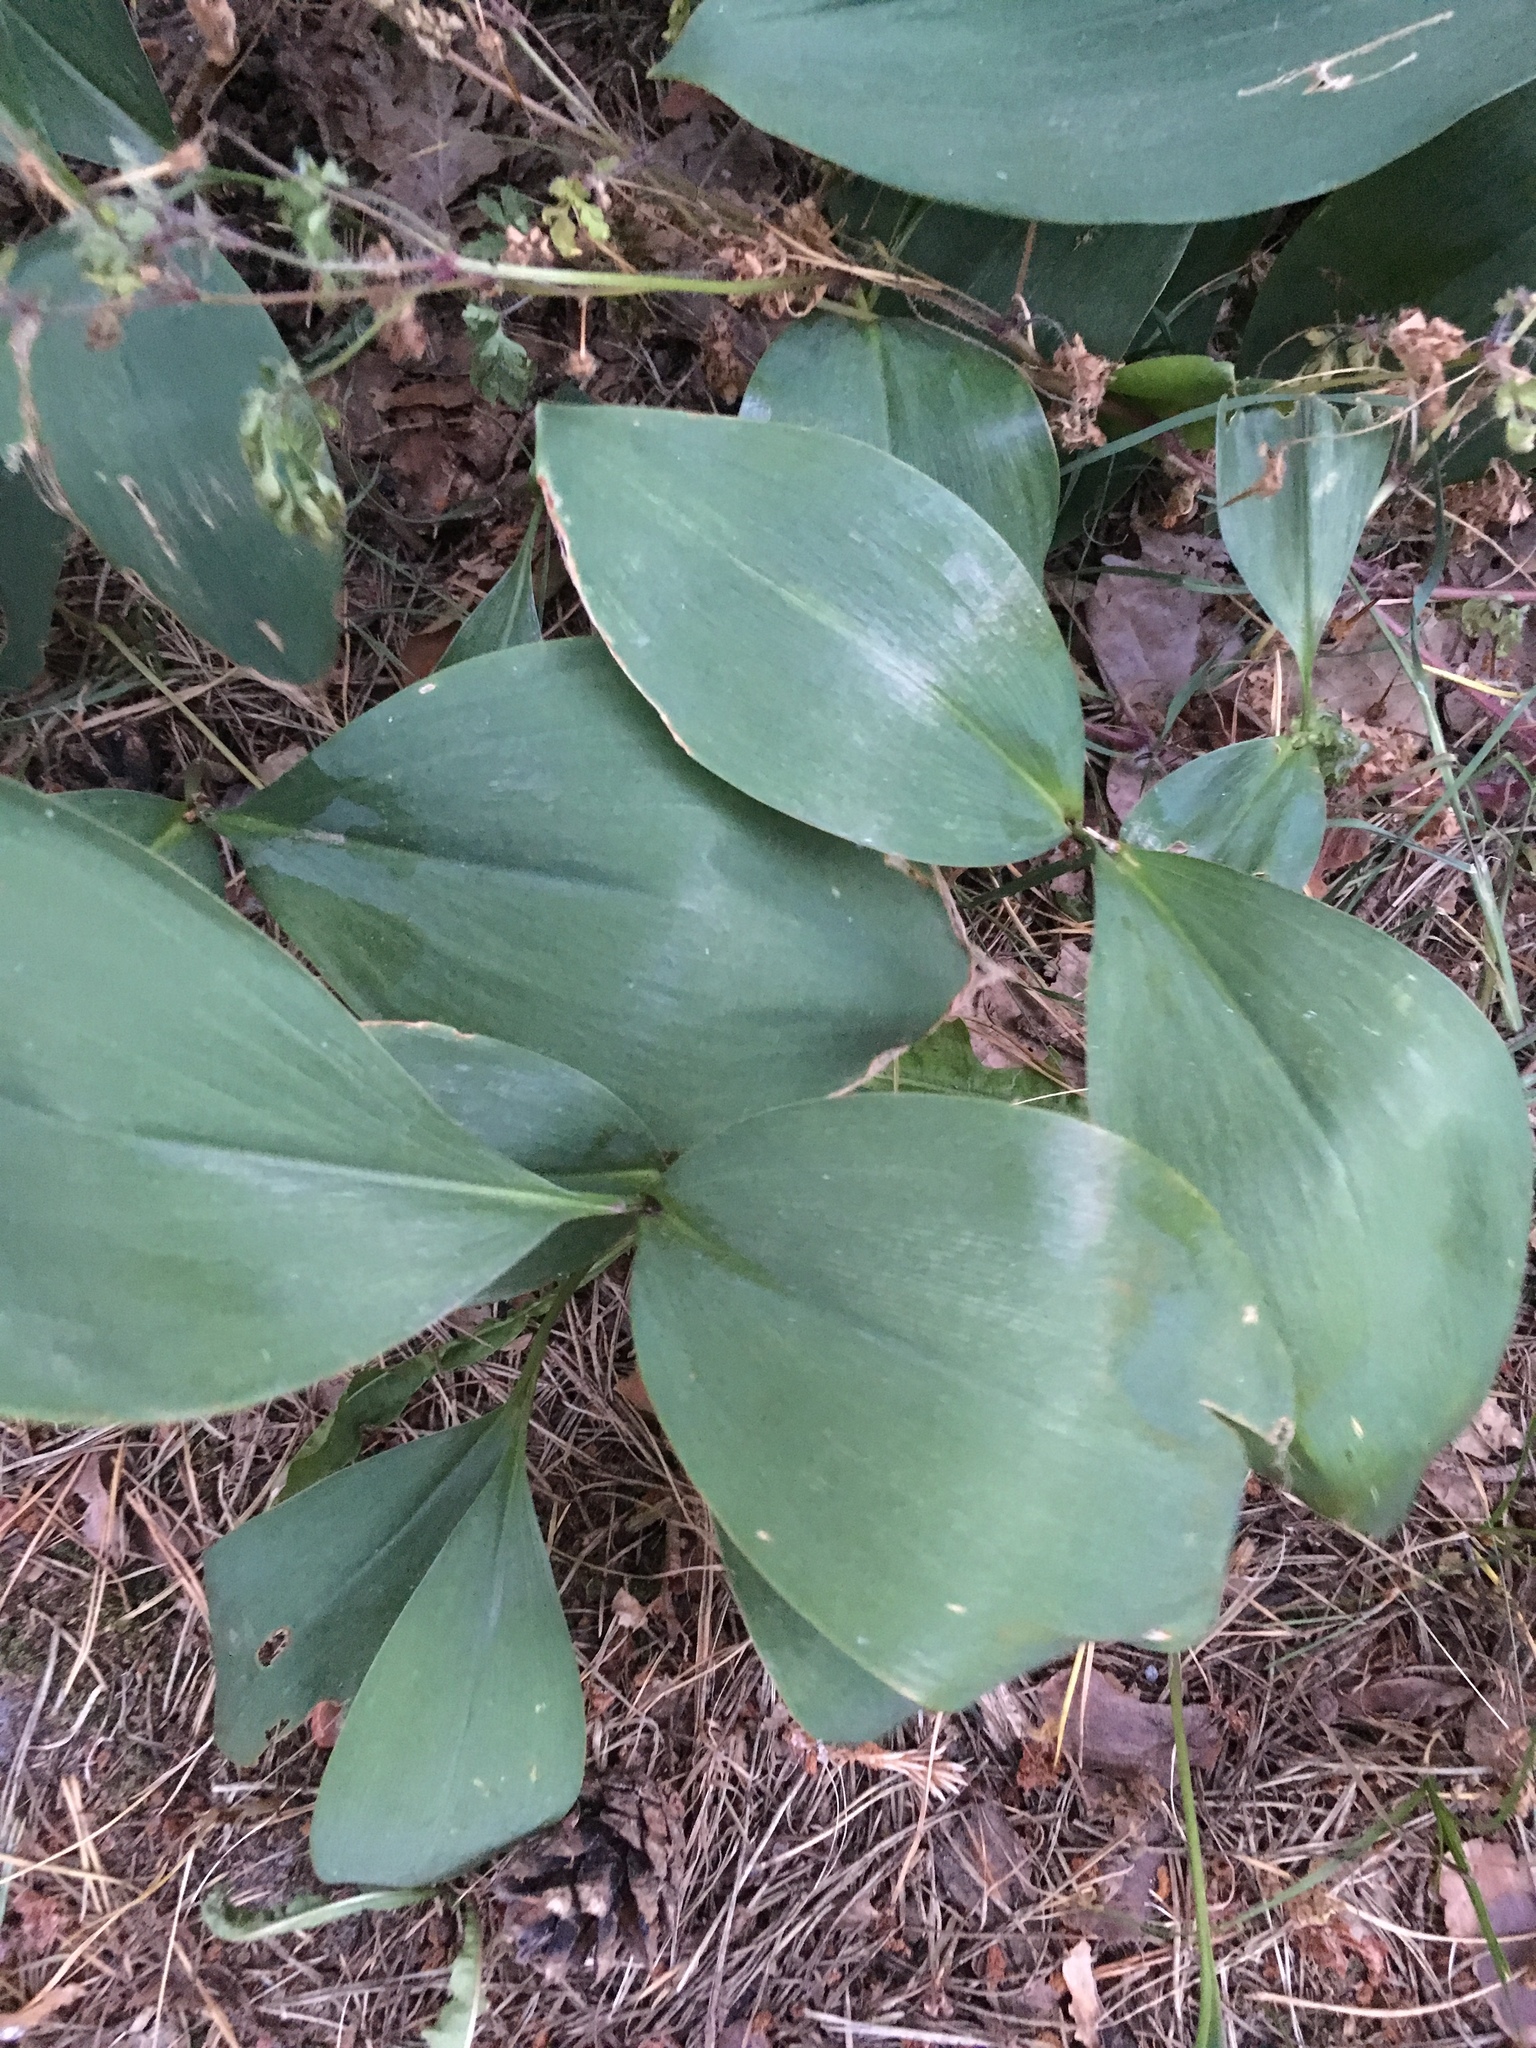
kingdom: Plantae
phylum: Tracheophyta
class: Liliopsida
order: Asparagales
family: Asparagaceae
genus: Convallaria
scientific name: Convallaria majalis
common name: Lily-of-the-valley
